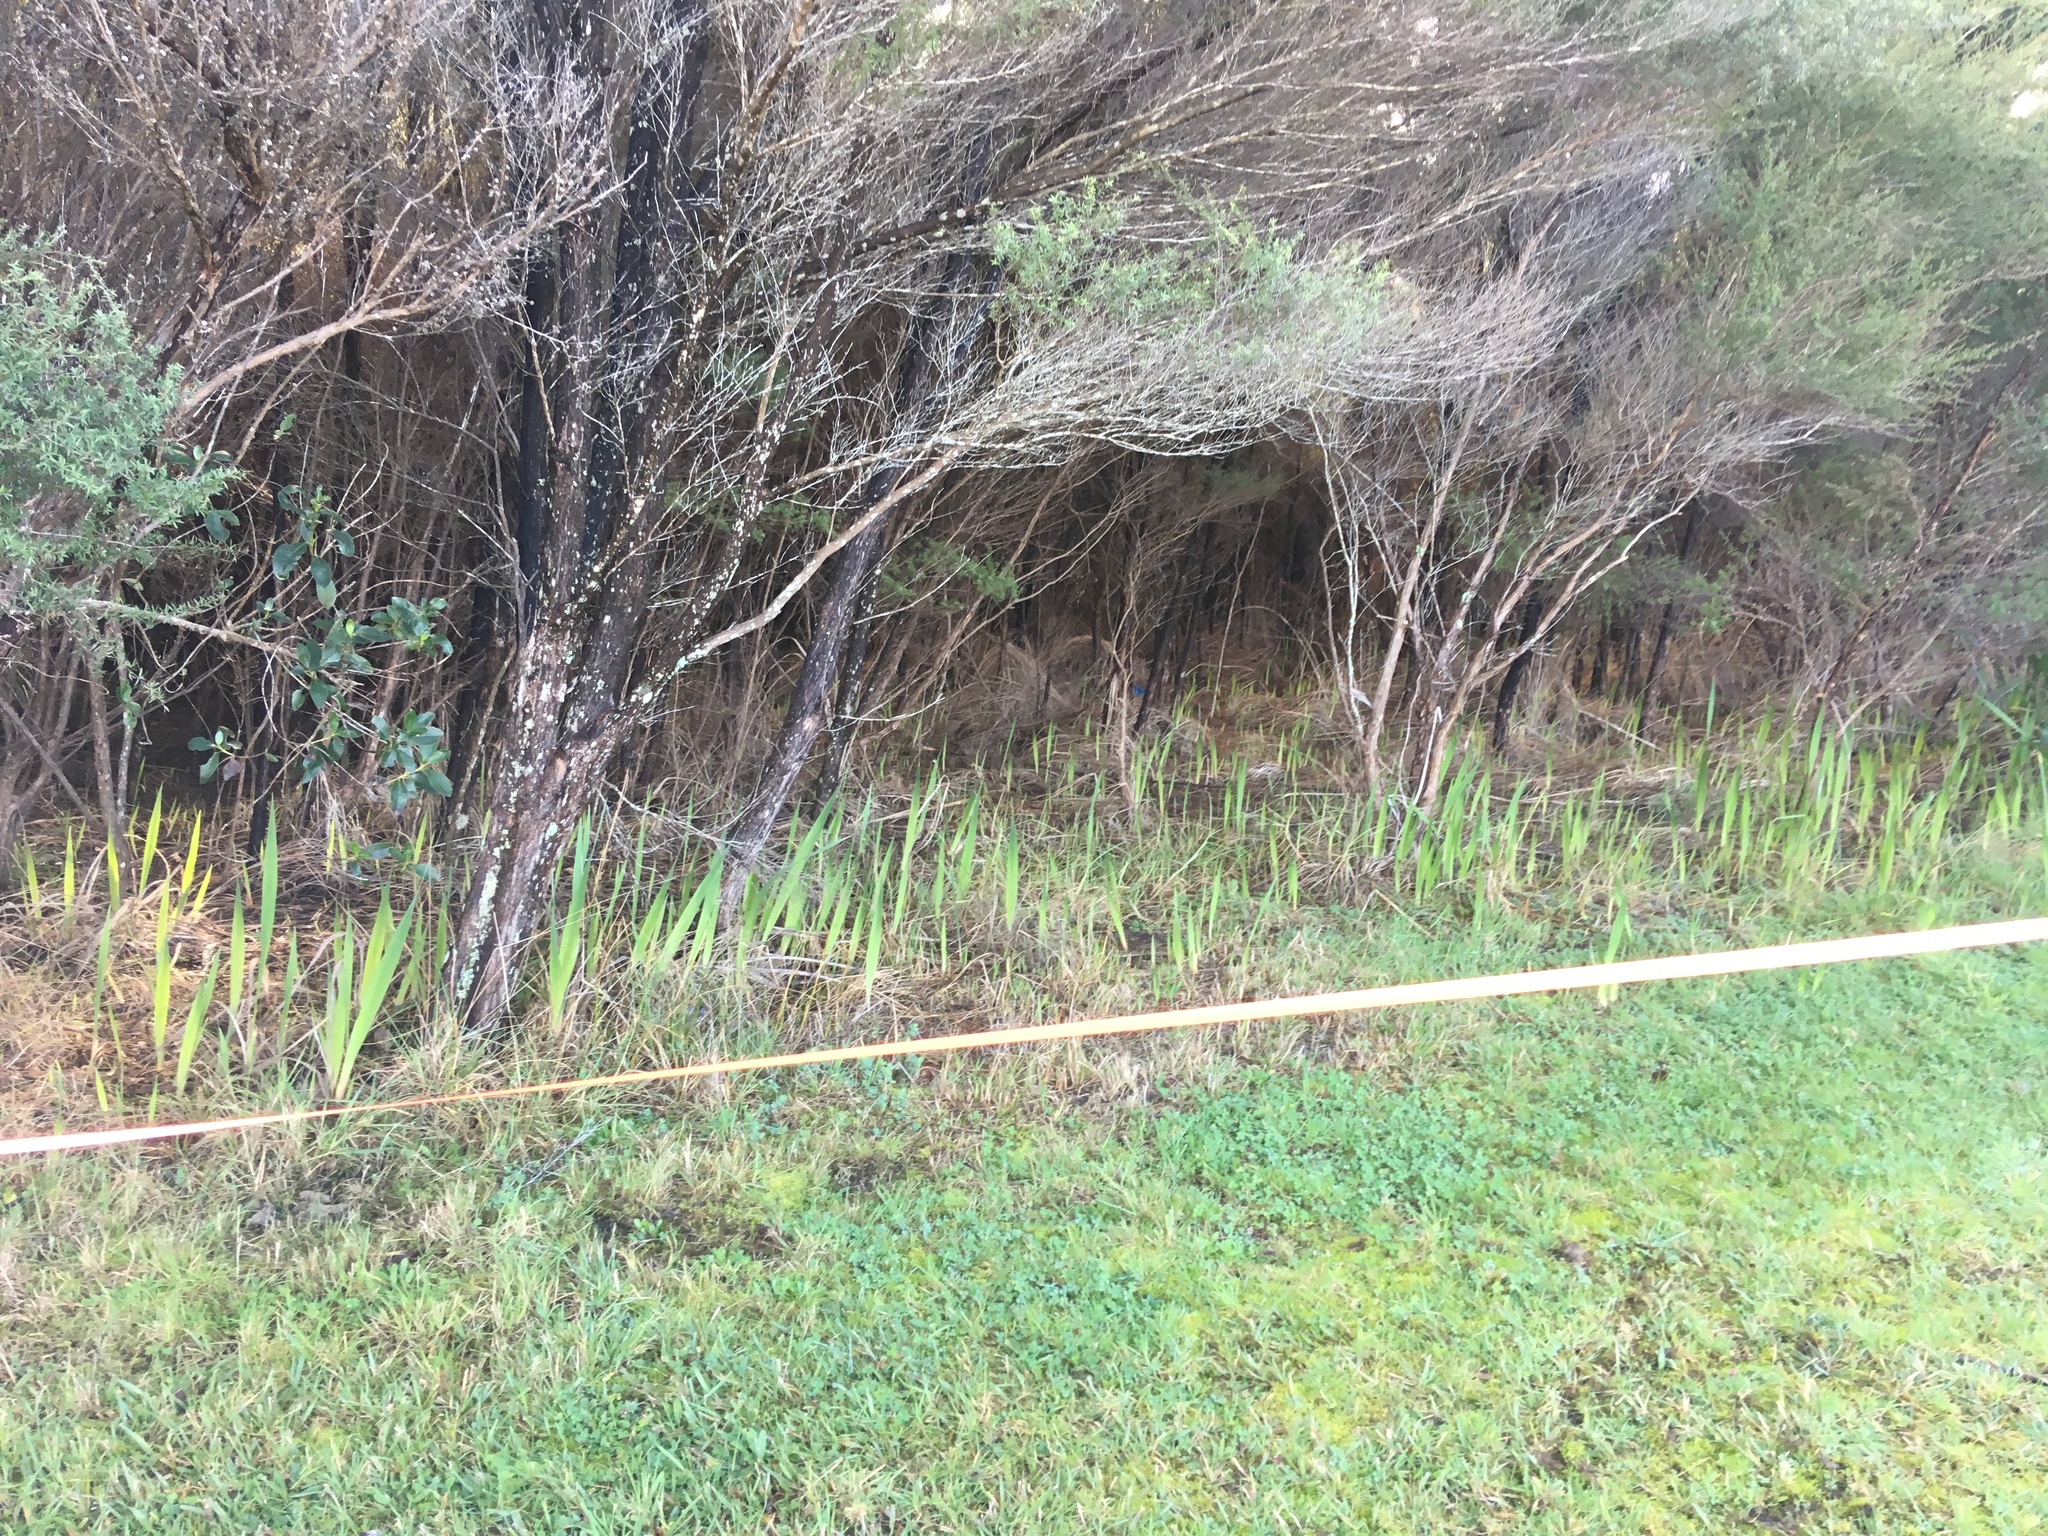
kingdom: Plantae
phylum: Tracheophyta
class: Liliopsida
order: Asparagales
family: Iridaceae
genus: Watsonia
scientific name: Watsonia meriana
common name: Bulbil bugle-lily
